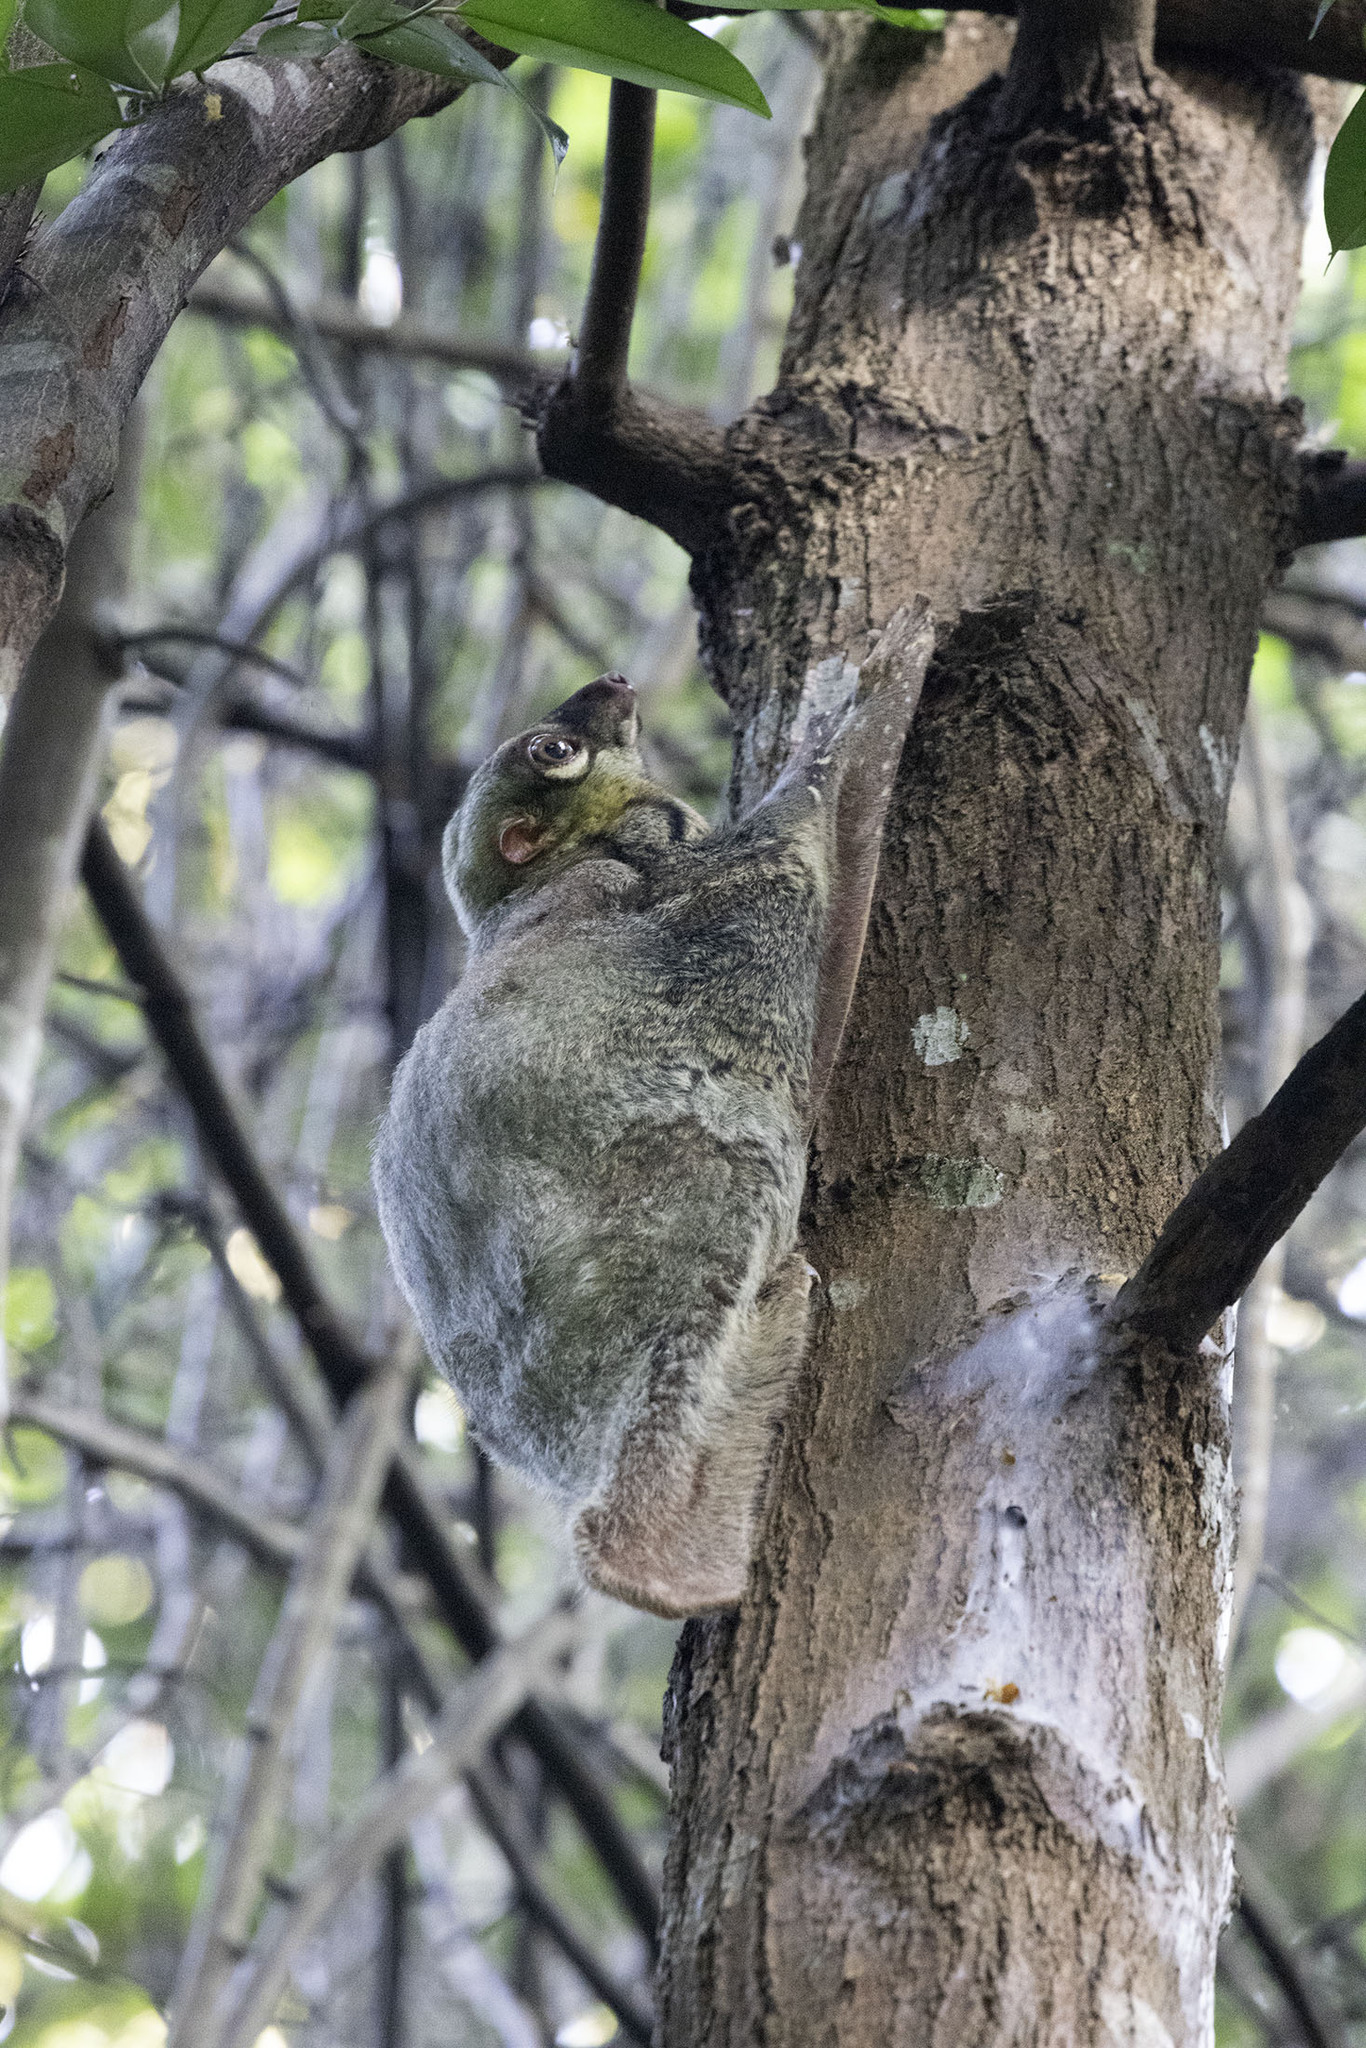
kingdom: Animalia
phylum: Chordata
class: Mammalia
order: Dermoptera
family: Cynocephalidae
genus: Galeopterus
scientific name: Galeopterus variegatus
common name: Sunda flying lemur
